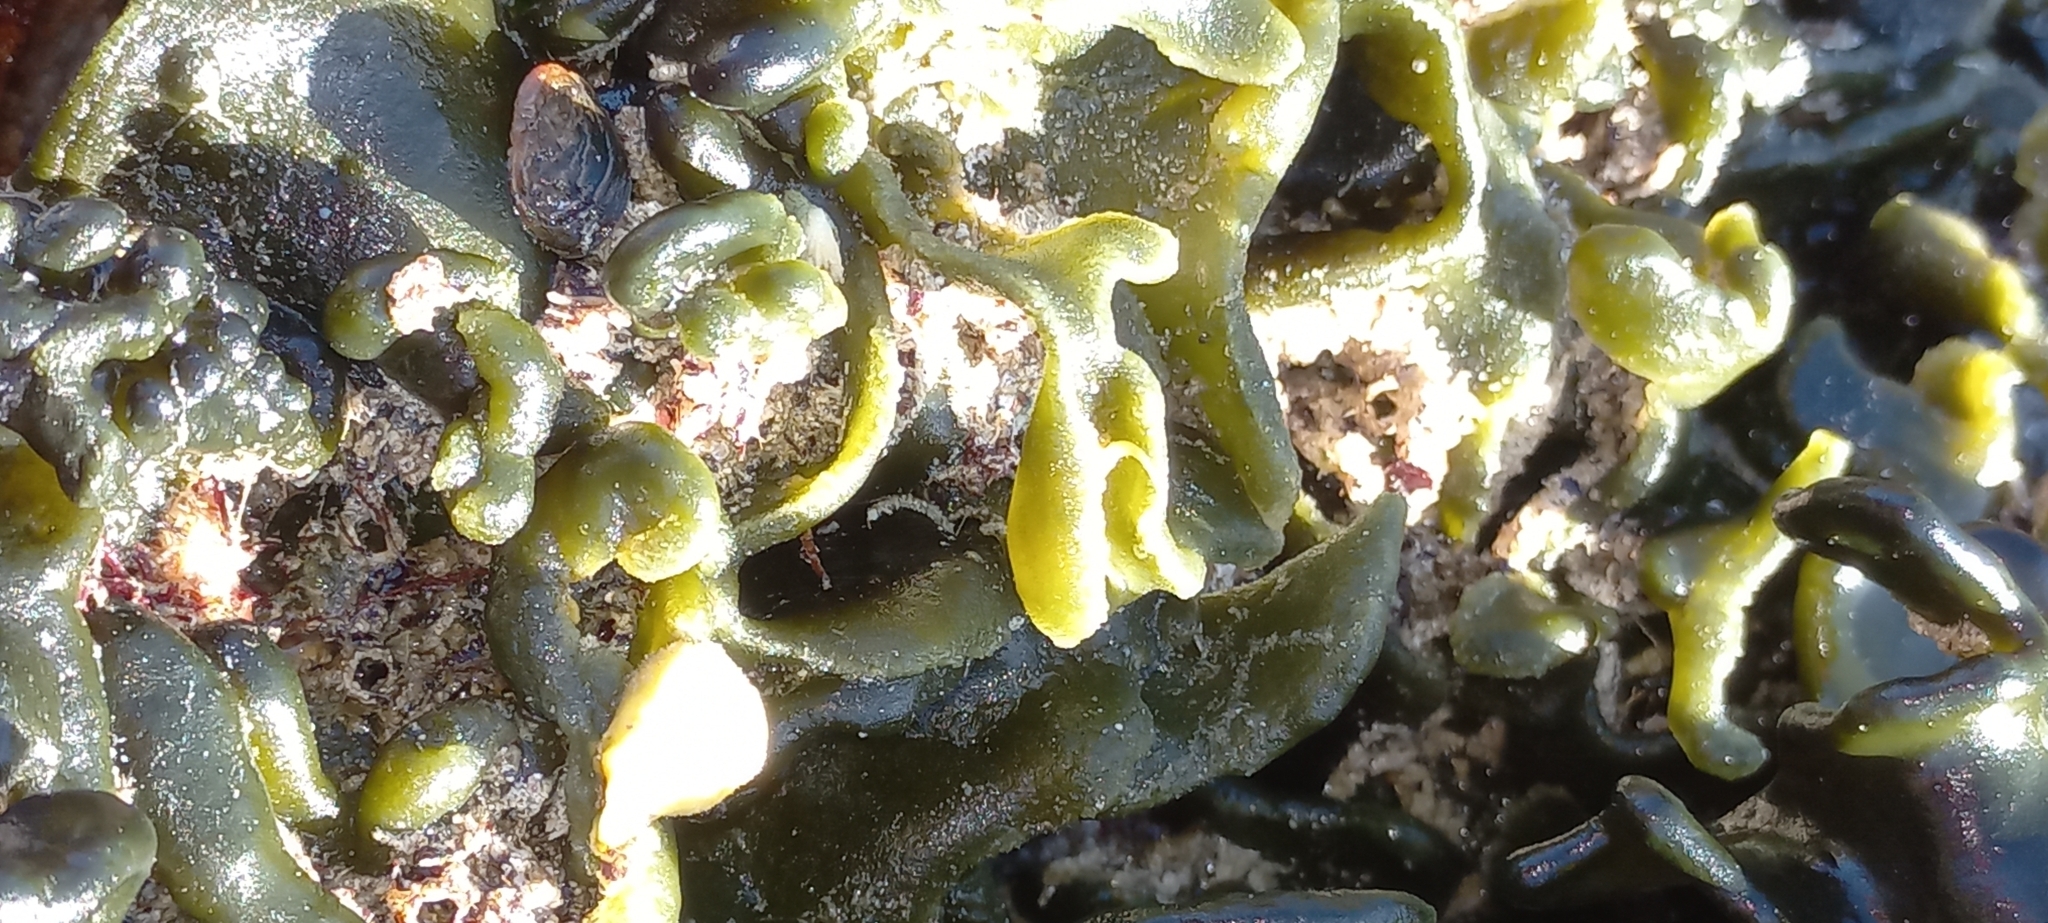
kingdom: Plantae
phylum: Chlorophyta
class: Ulvophyceae
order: Bryopsidales
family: Codiaceae
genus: Codium
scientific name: Codium
